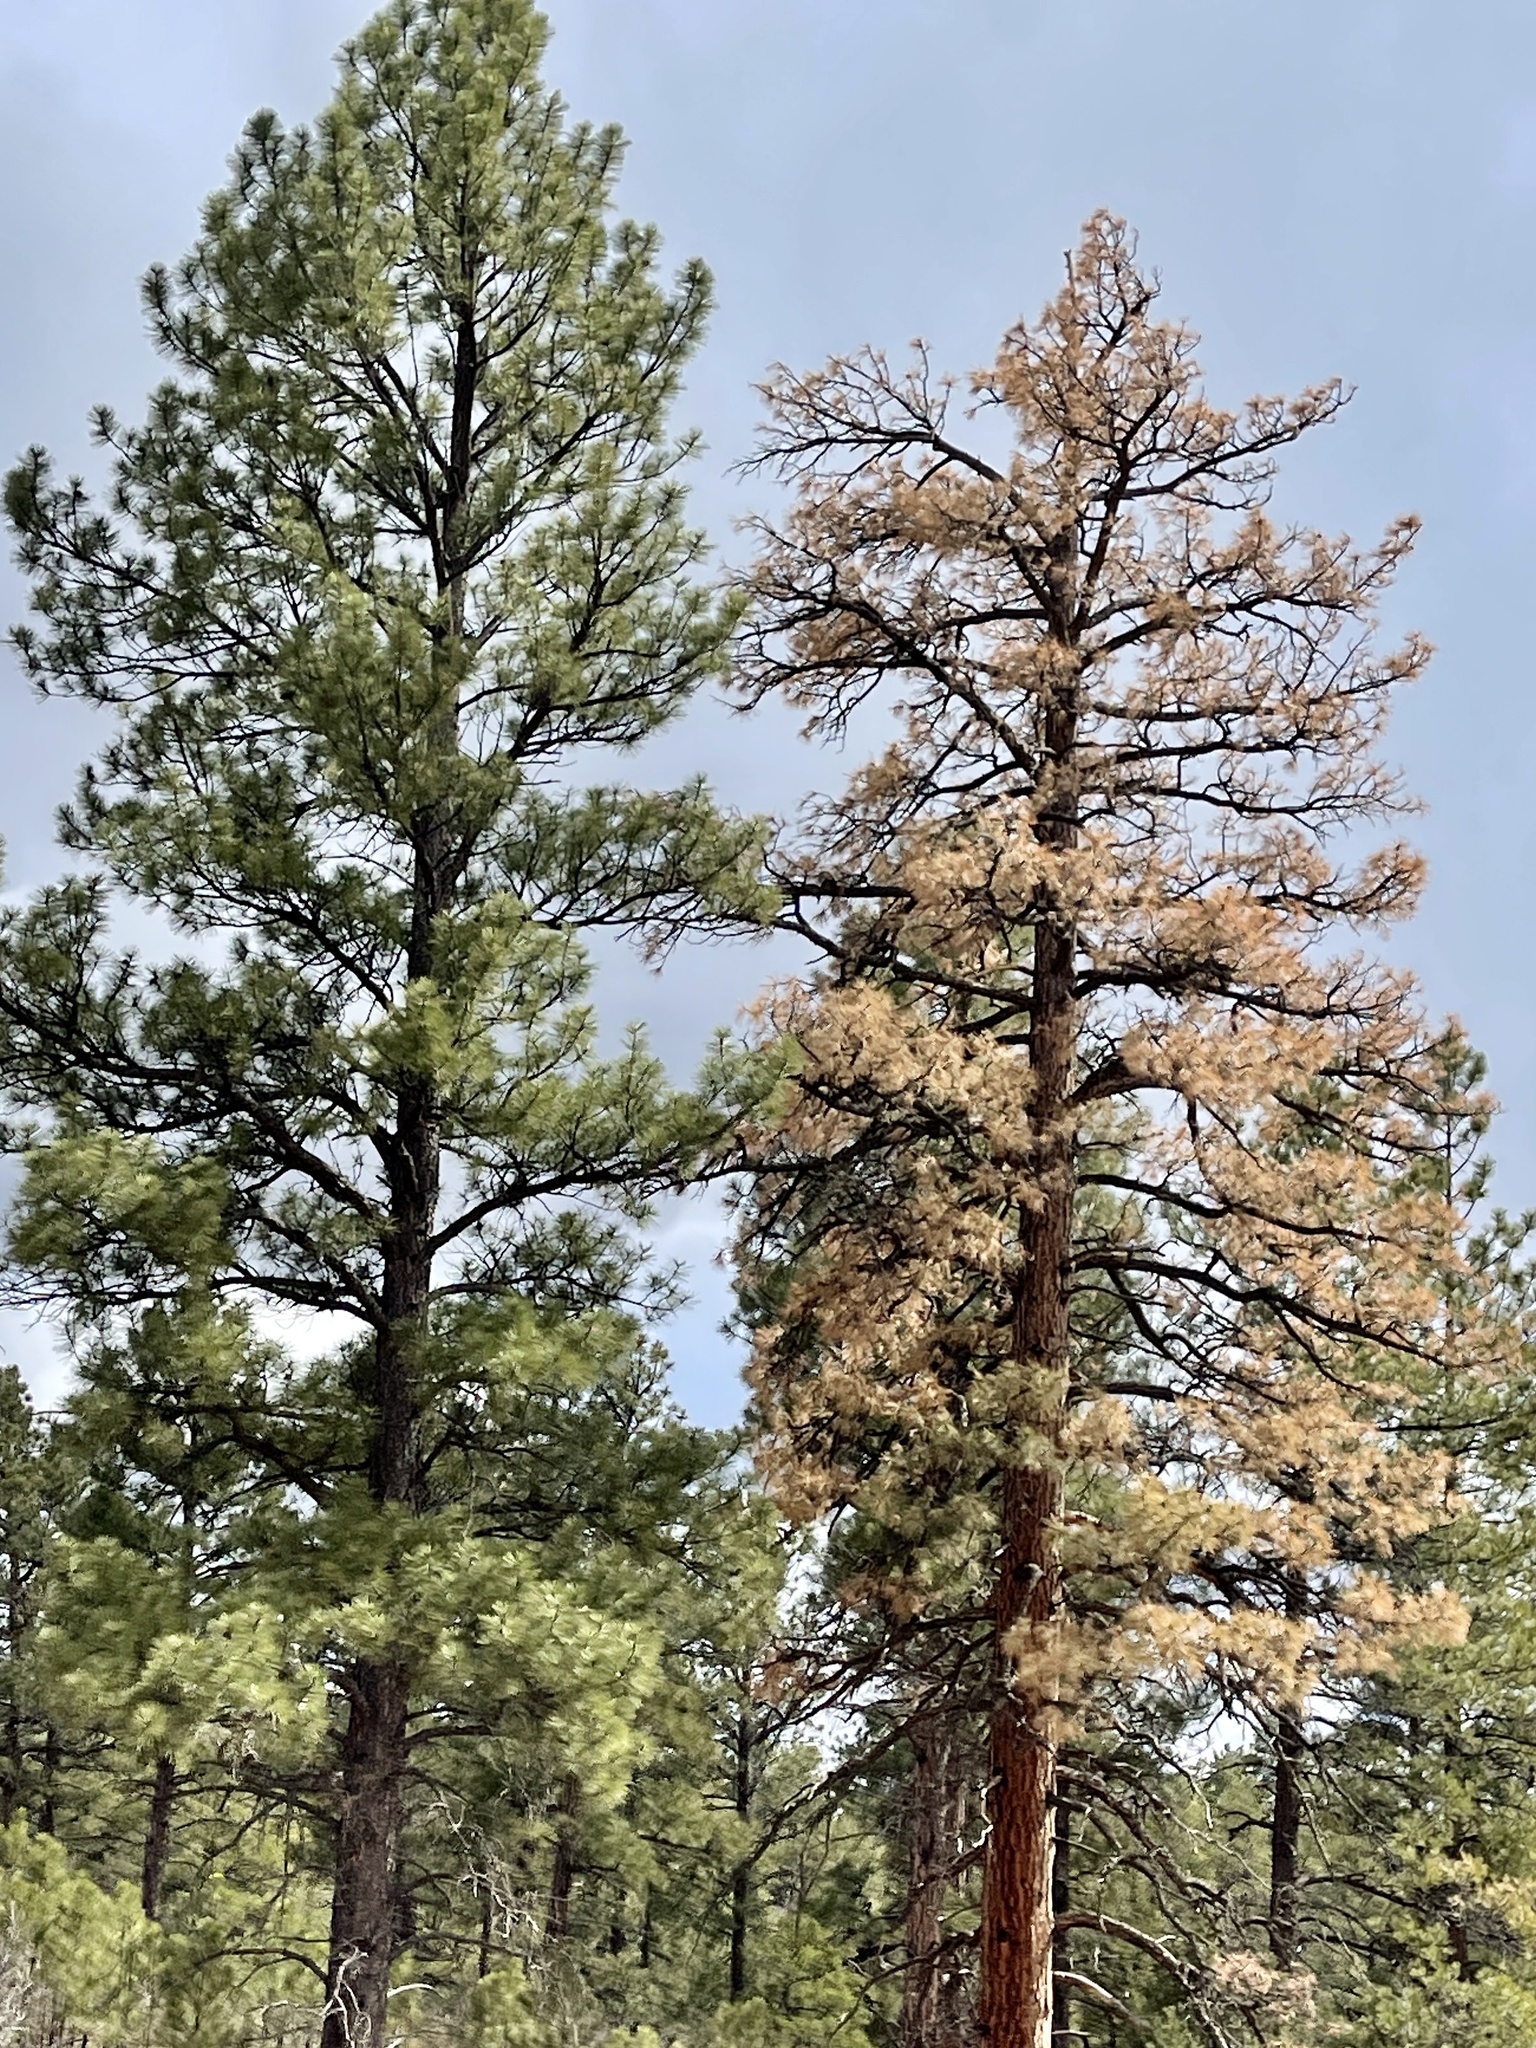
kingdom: Plantae
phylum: Tracheophyta
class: Pinopsida
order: Pinales
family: Pinaceae
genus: Pinus
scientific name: Pinus ponderosa
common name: Western yellow-pine
